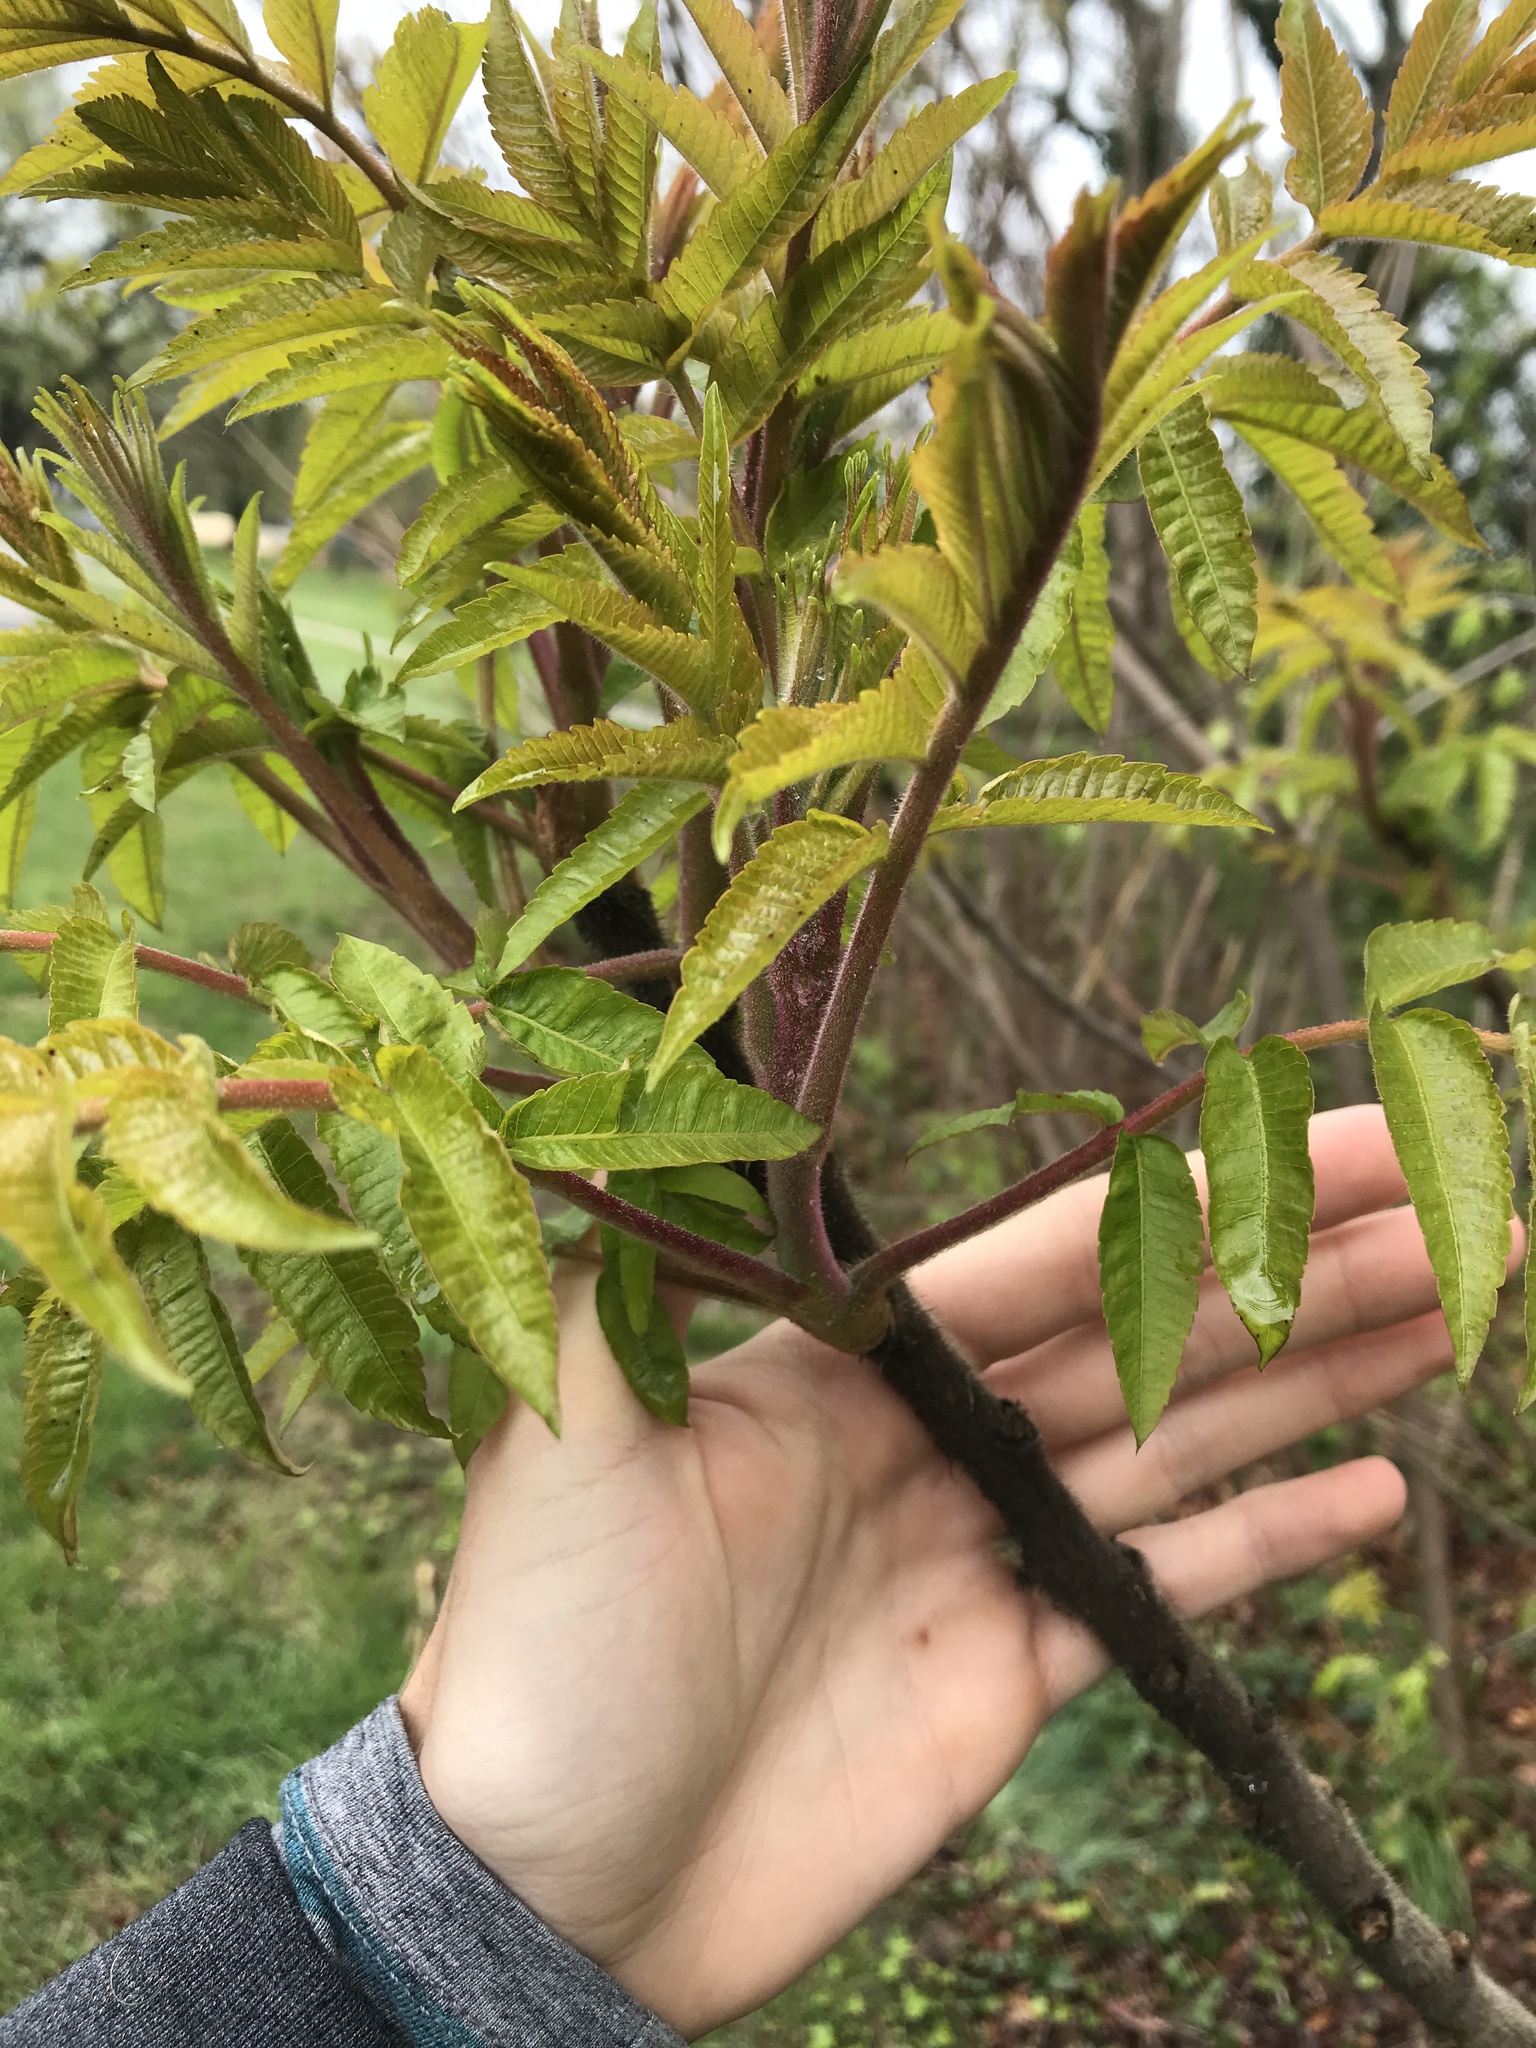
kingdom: Plantae
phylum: Tracheophyta
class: Magnoliopsida
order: Sapindales
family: Anacardiaceae
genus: Rhus
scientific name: Rhus typhina
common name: Staghorn sumac
